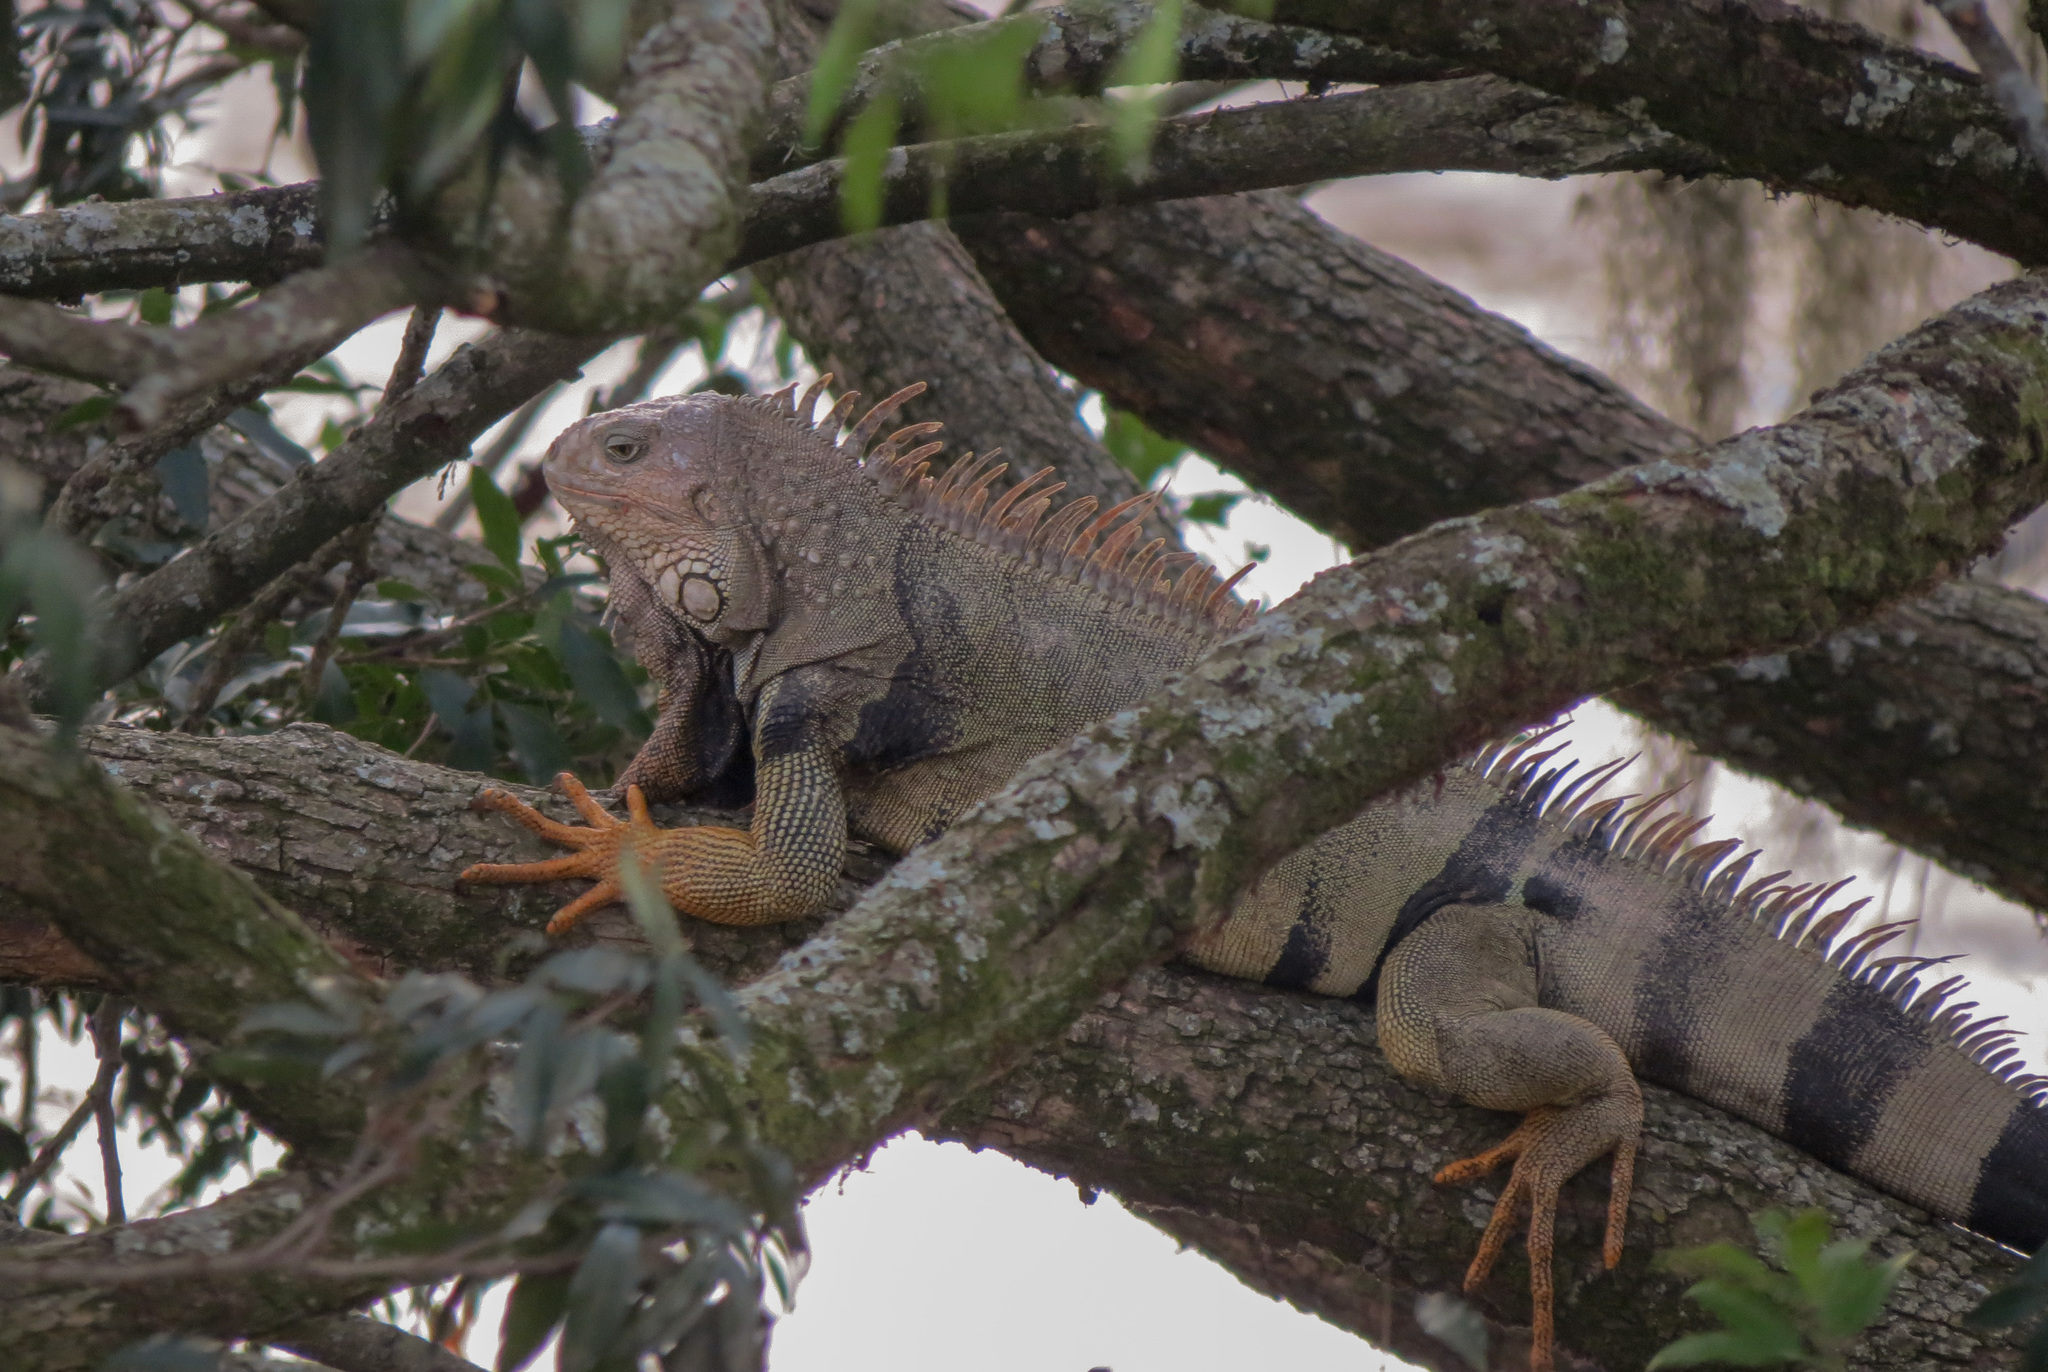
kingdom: Animalia
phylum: Chordata
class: Squamata
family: Iguanidae
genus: Iguana
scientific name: Iguana iguana
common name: Green iguana
